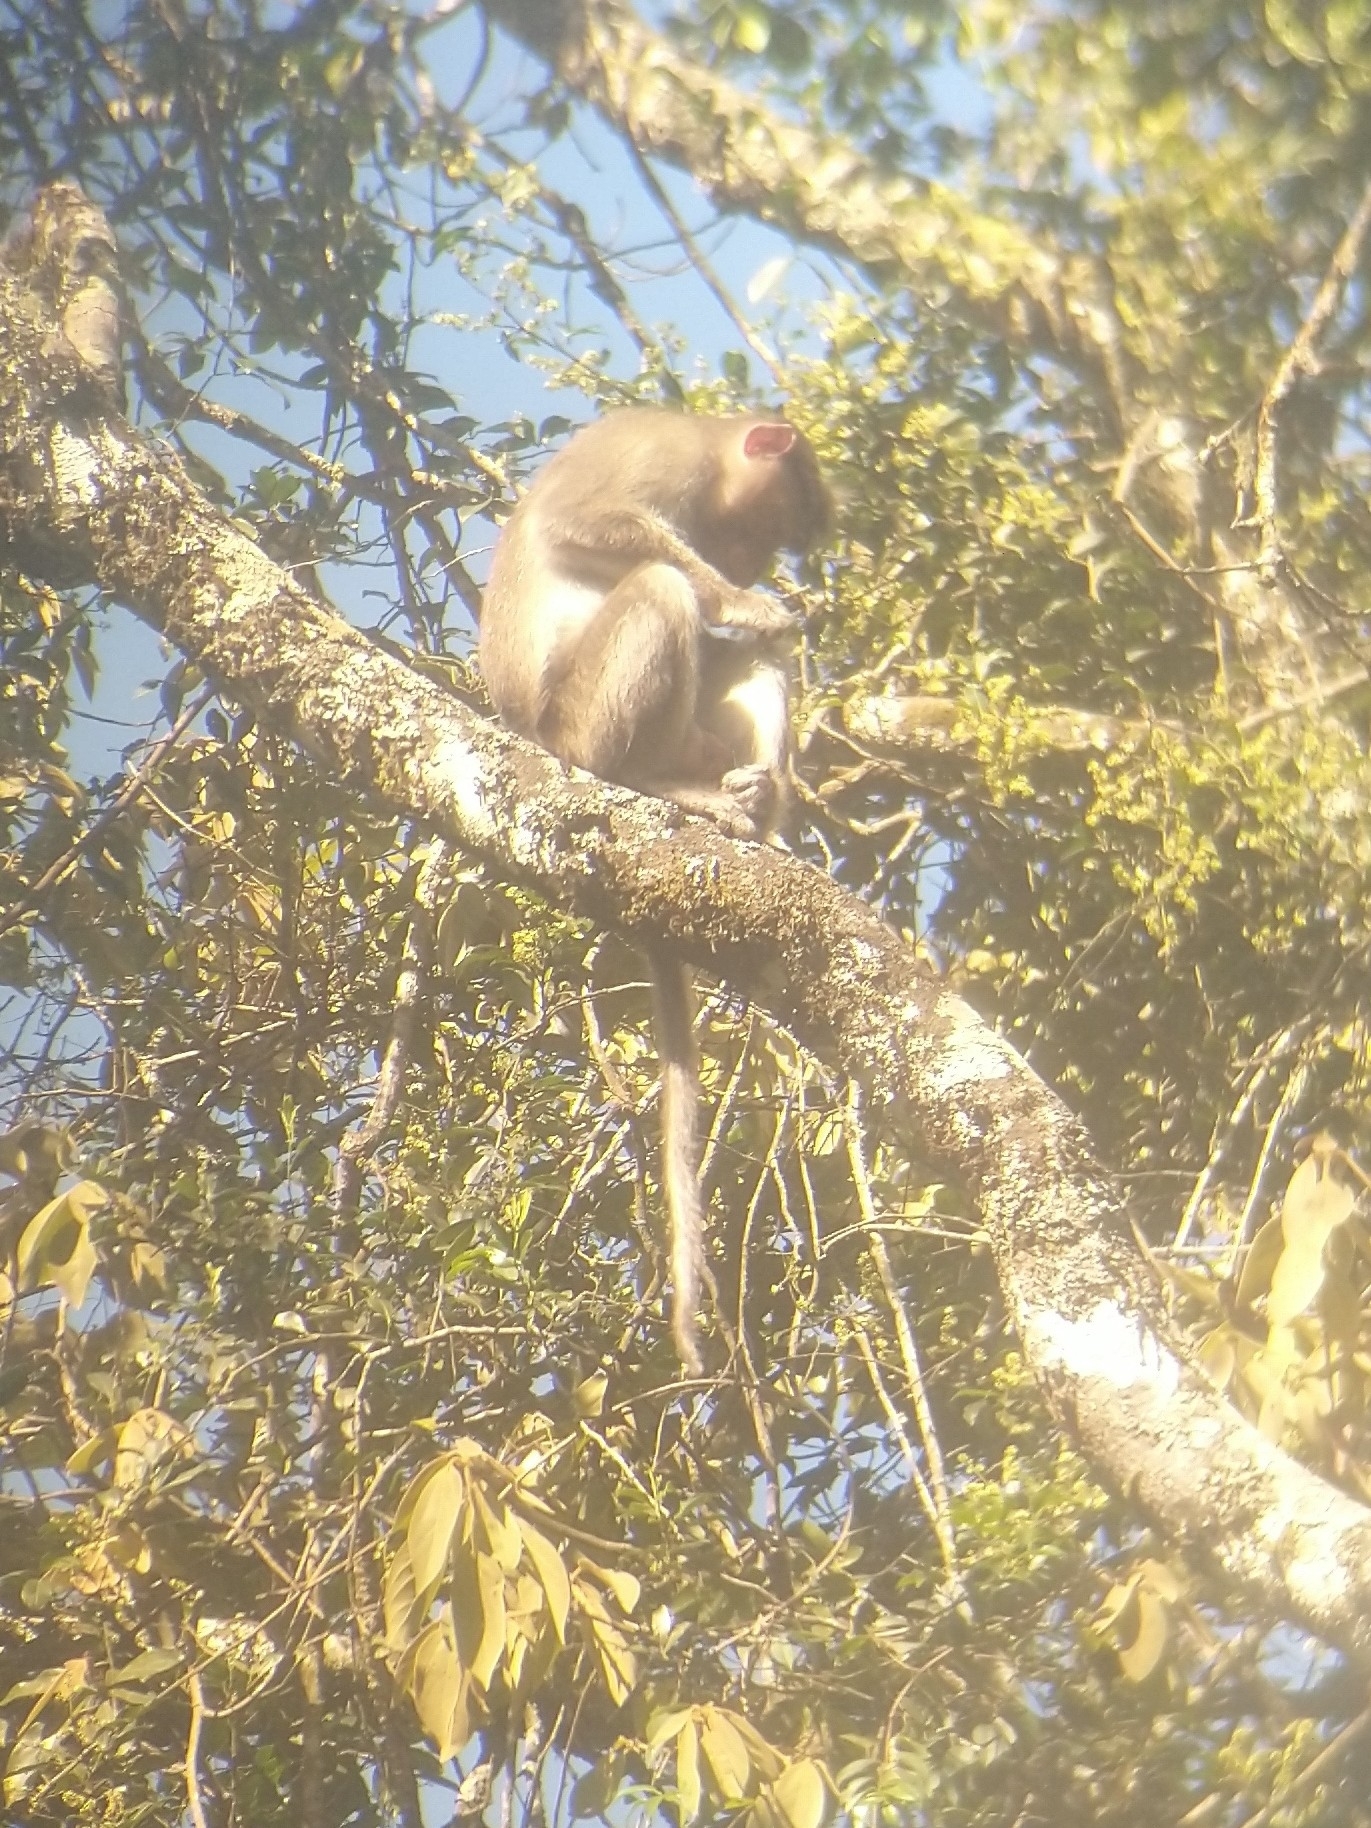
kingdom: Animalia
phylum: Chordata
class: Mammalia
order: Primates
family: Cercopithecidae
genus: Macaca
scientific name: Macaca radiata
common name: Bonnet macaque
